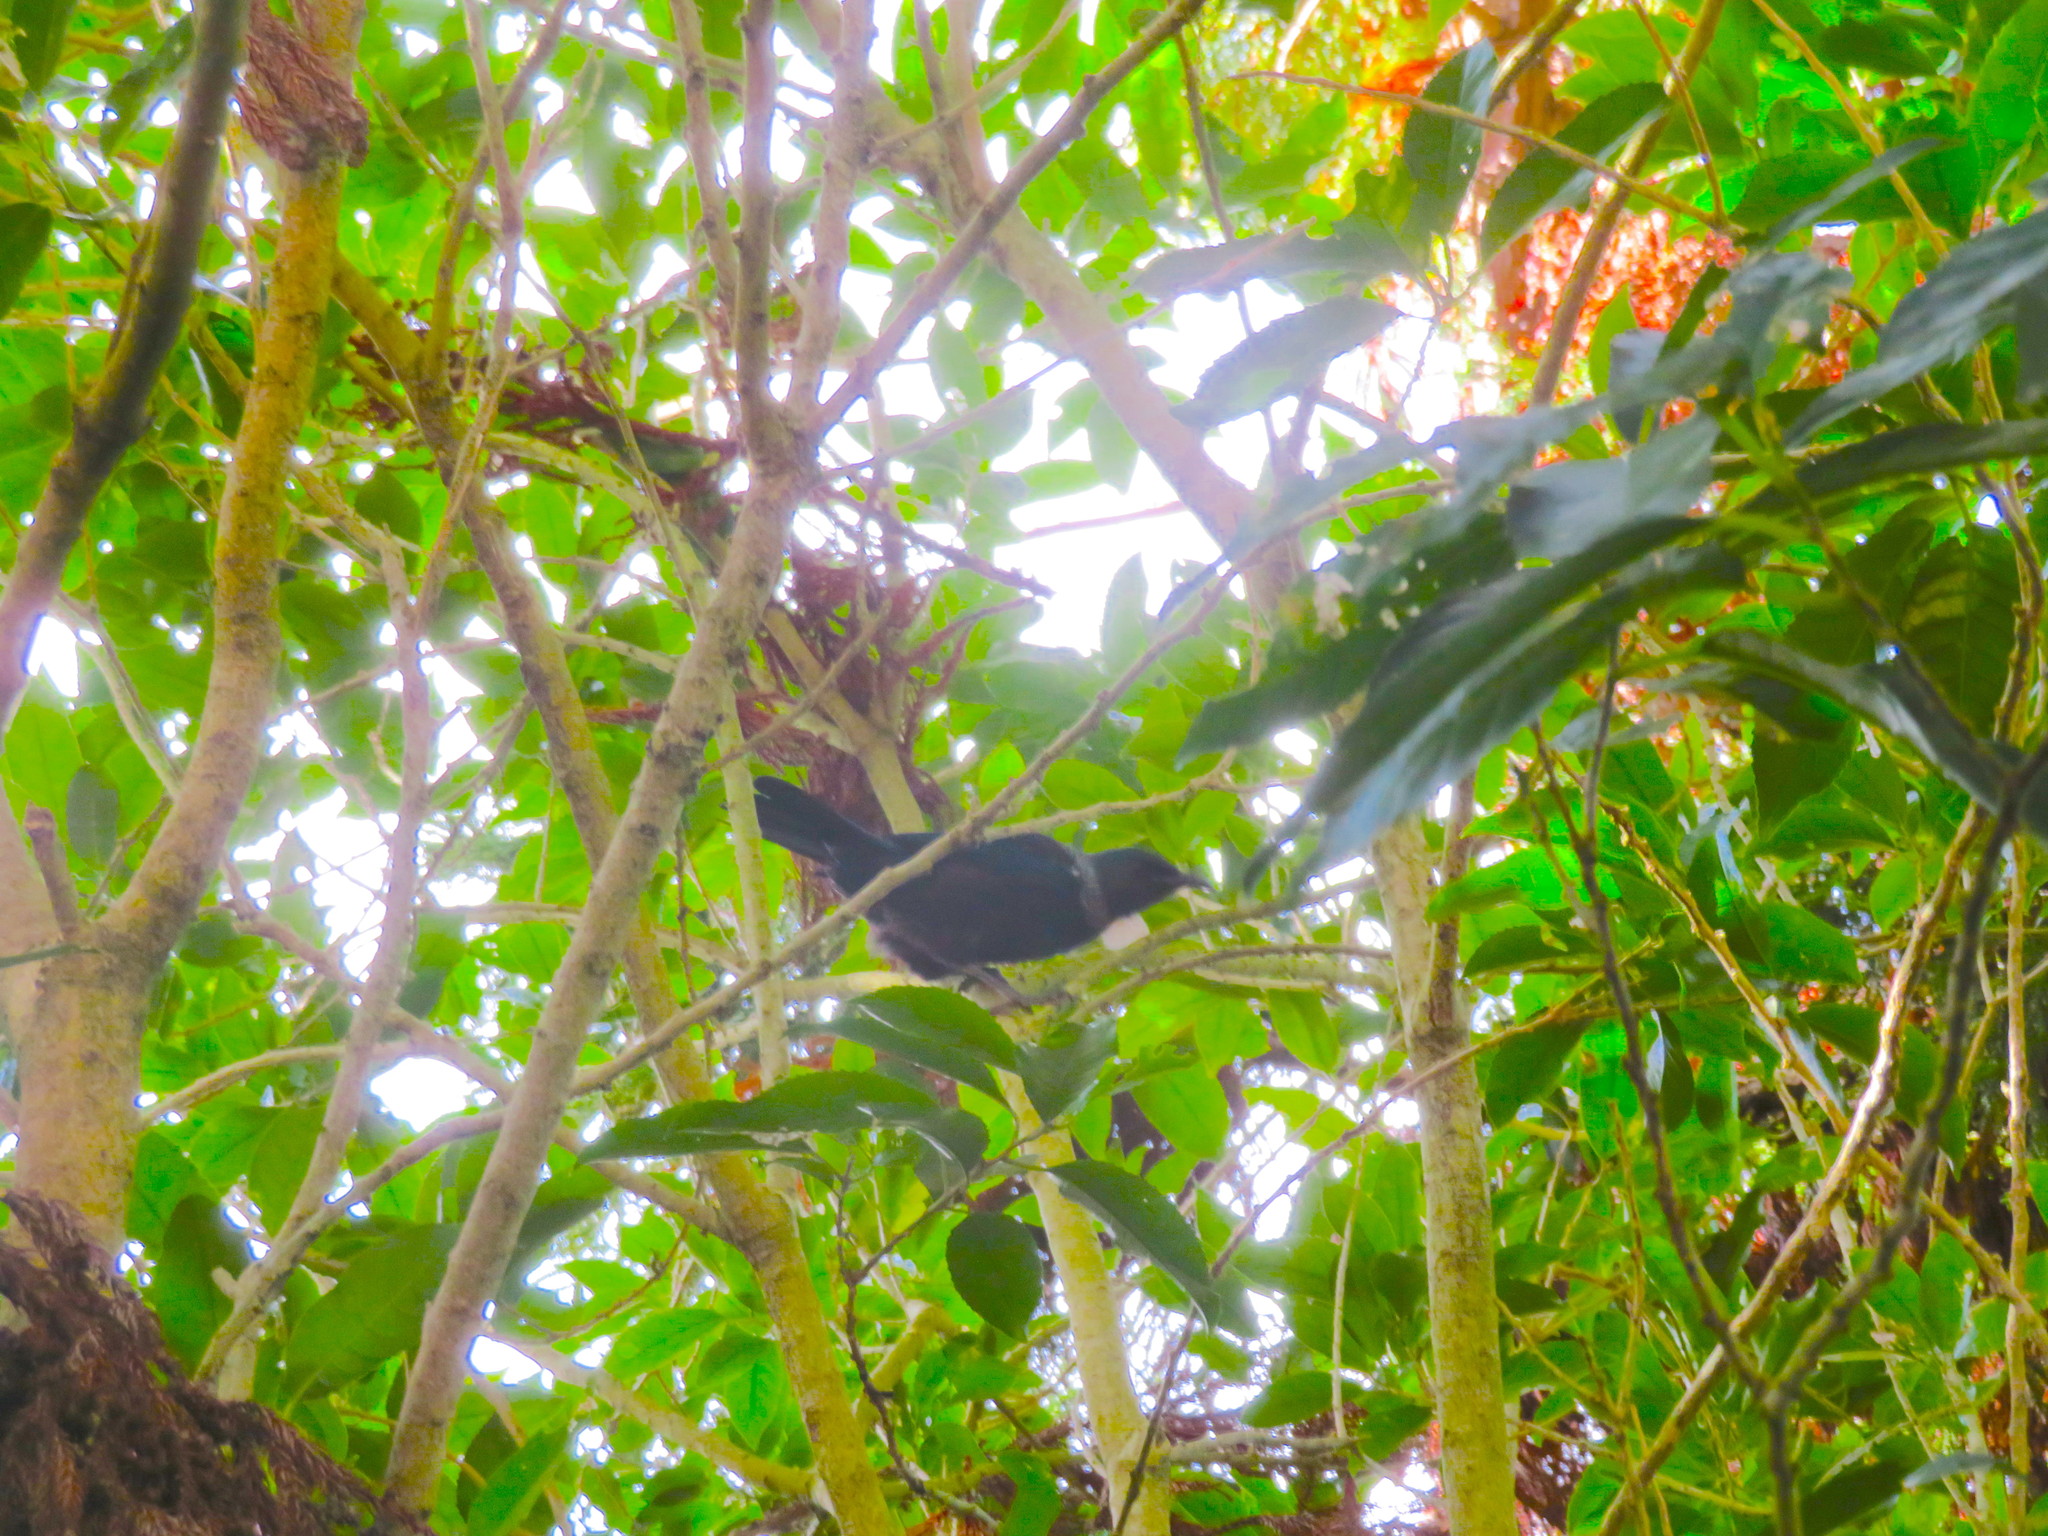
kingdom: Animalia
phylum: Chordata
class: Aves
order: Passeriformes
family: Meliphagidae
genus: Prosthemadera
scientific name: Prosthemadera novaeseelandiae
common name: Tui
